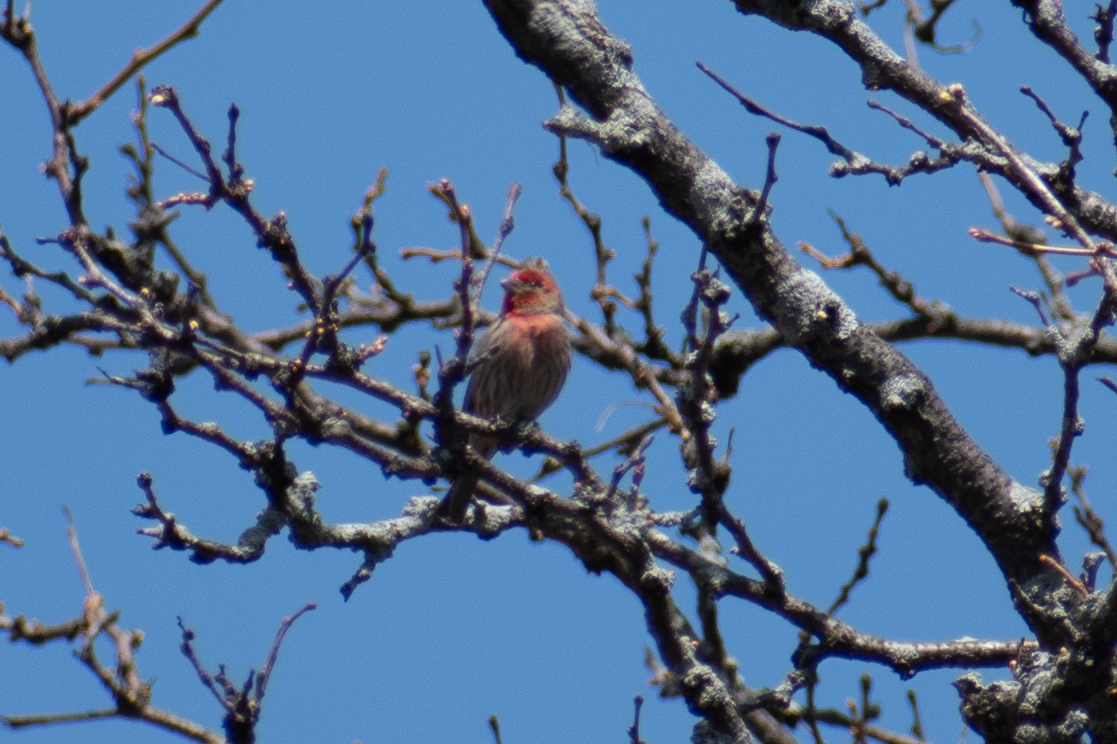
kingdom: Animalia
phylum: Chordata
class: Aves
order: Passeriformes
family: Fringillidae
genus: Haemorhous
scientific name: Haemorhous mexicanus
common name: House finch
